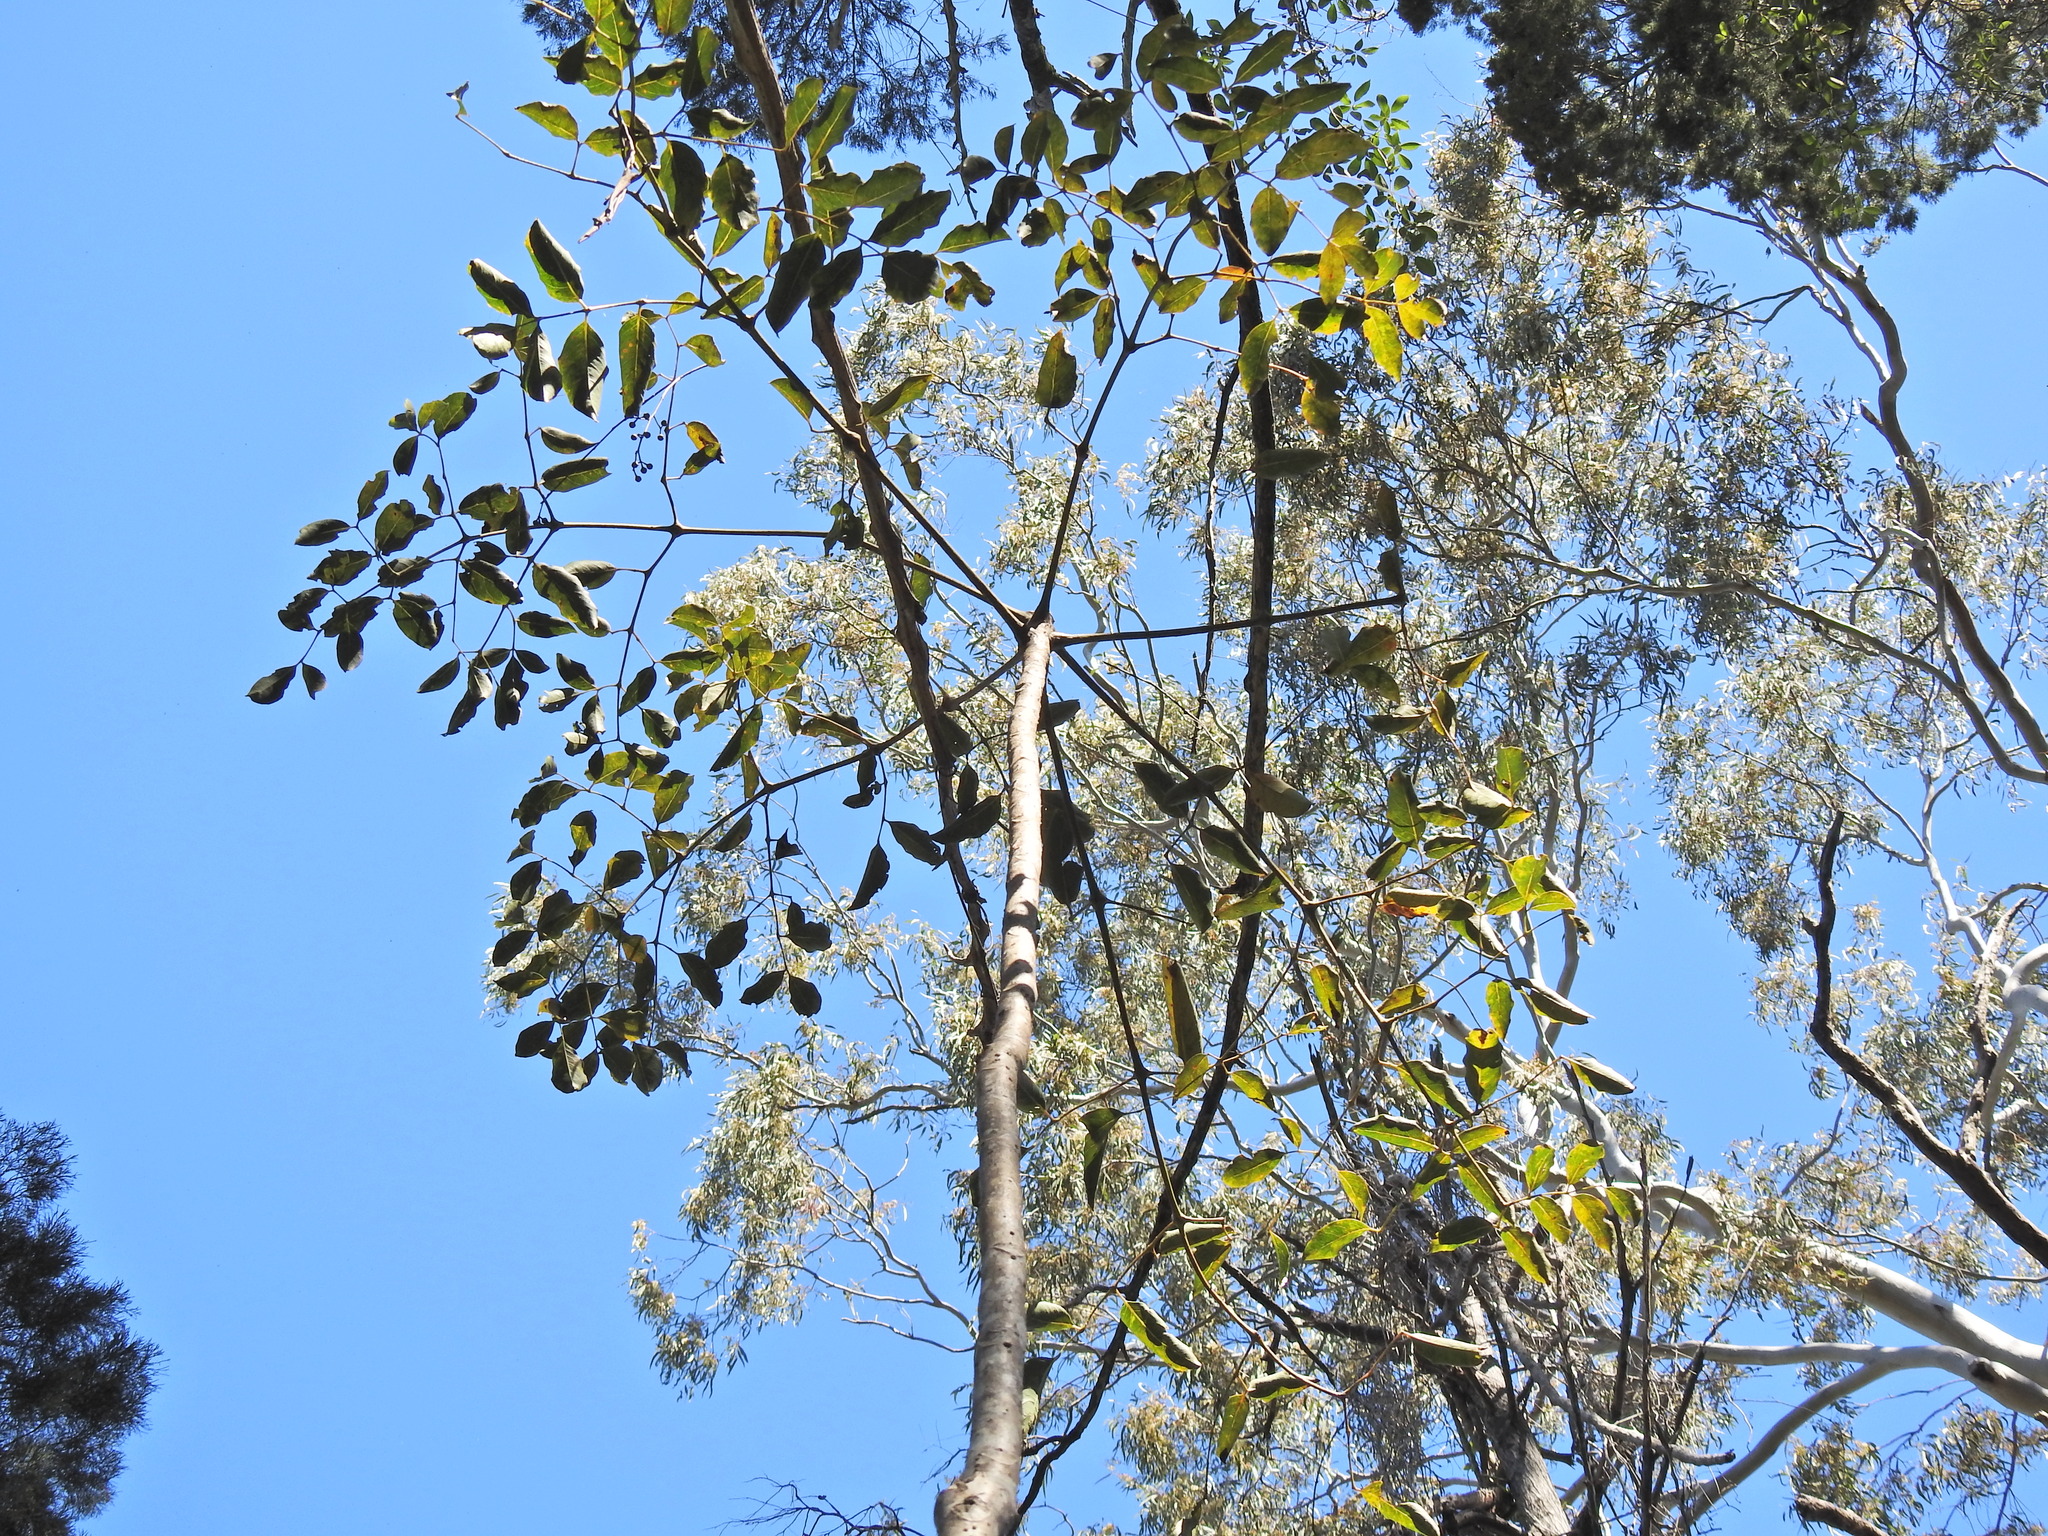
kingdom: Plantae
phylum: Tracheophyta
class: Magnoliopsida
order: Apiales
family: Araliaceae
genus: Polyscias
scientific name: Polyscias elegans
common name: Mowbulan whitewood
